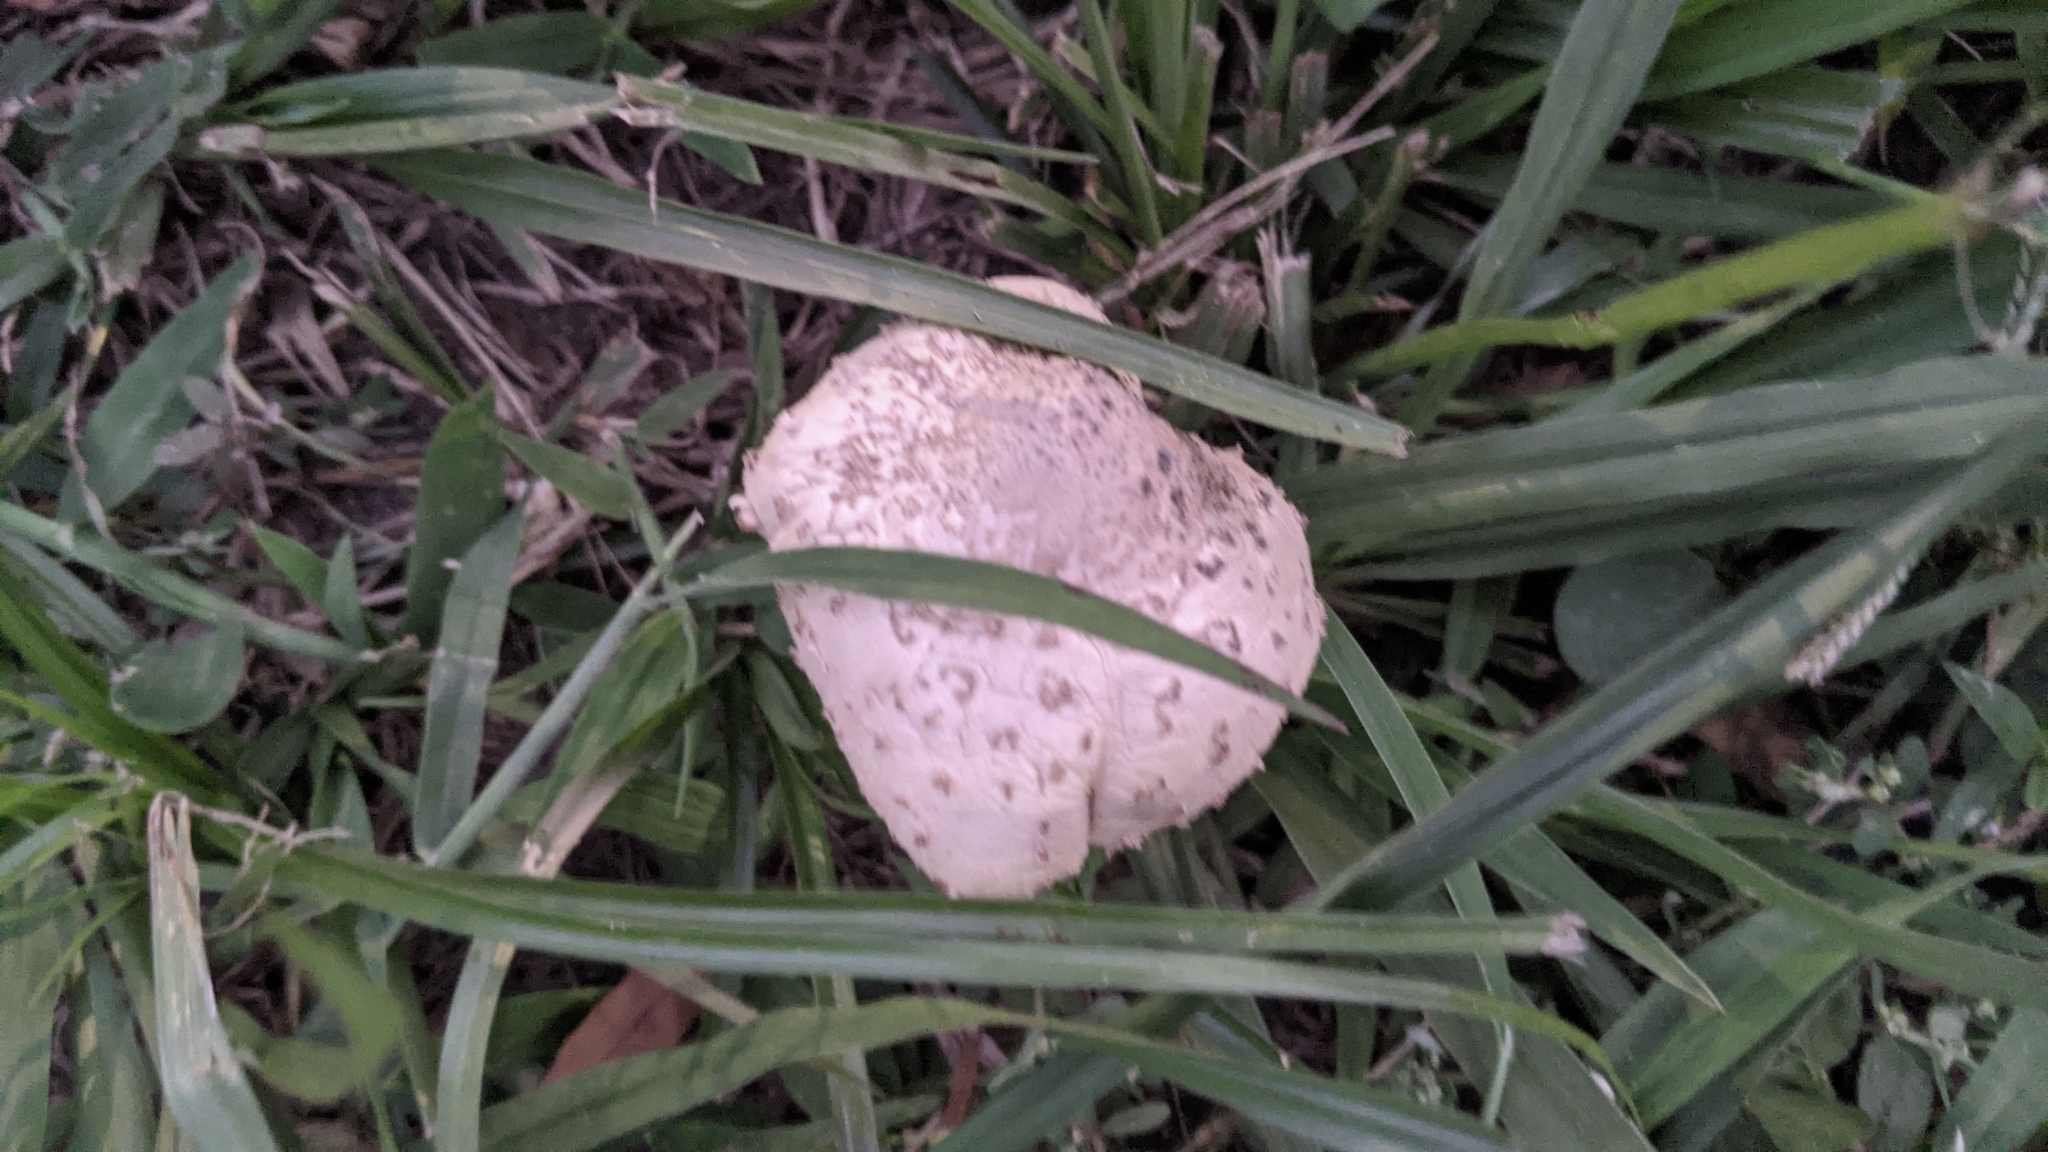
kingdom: Fungi
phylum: Basidiomycota
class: Agaricomycetes
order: Agaricales
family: Agaricaceae
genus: Chlorophyllum
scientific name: Chlorophyllum molybdites
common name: False parasol
